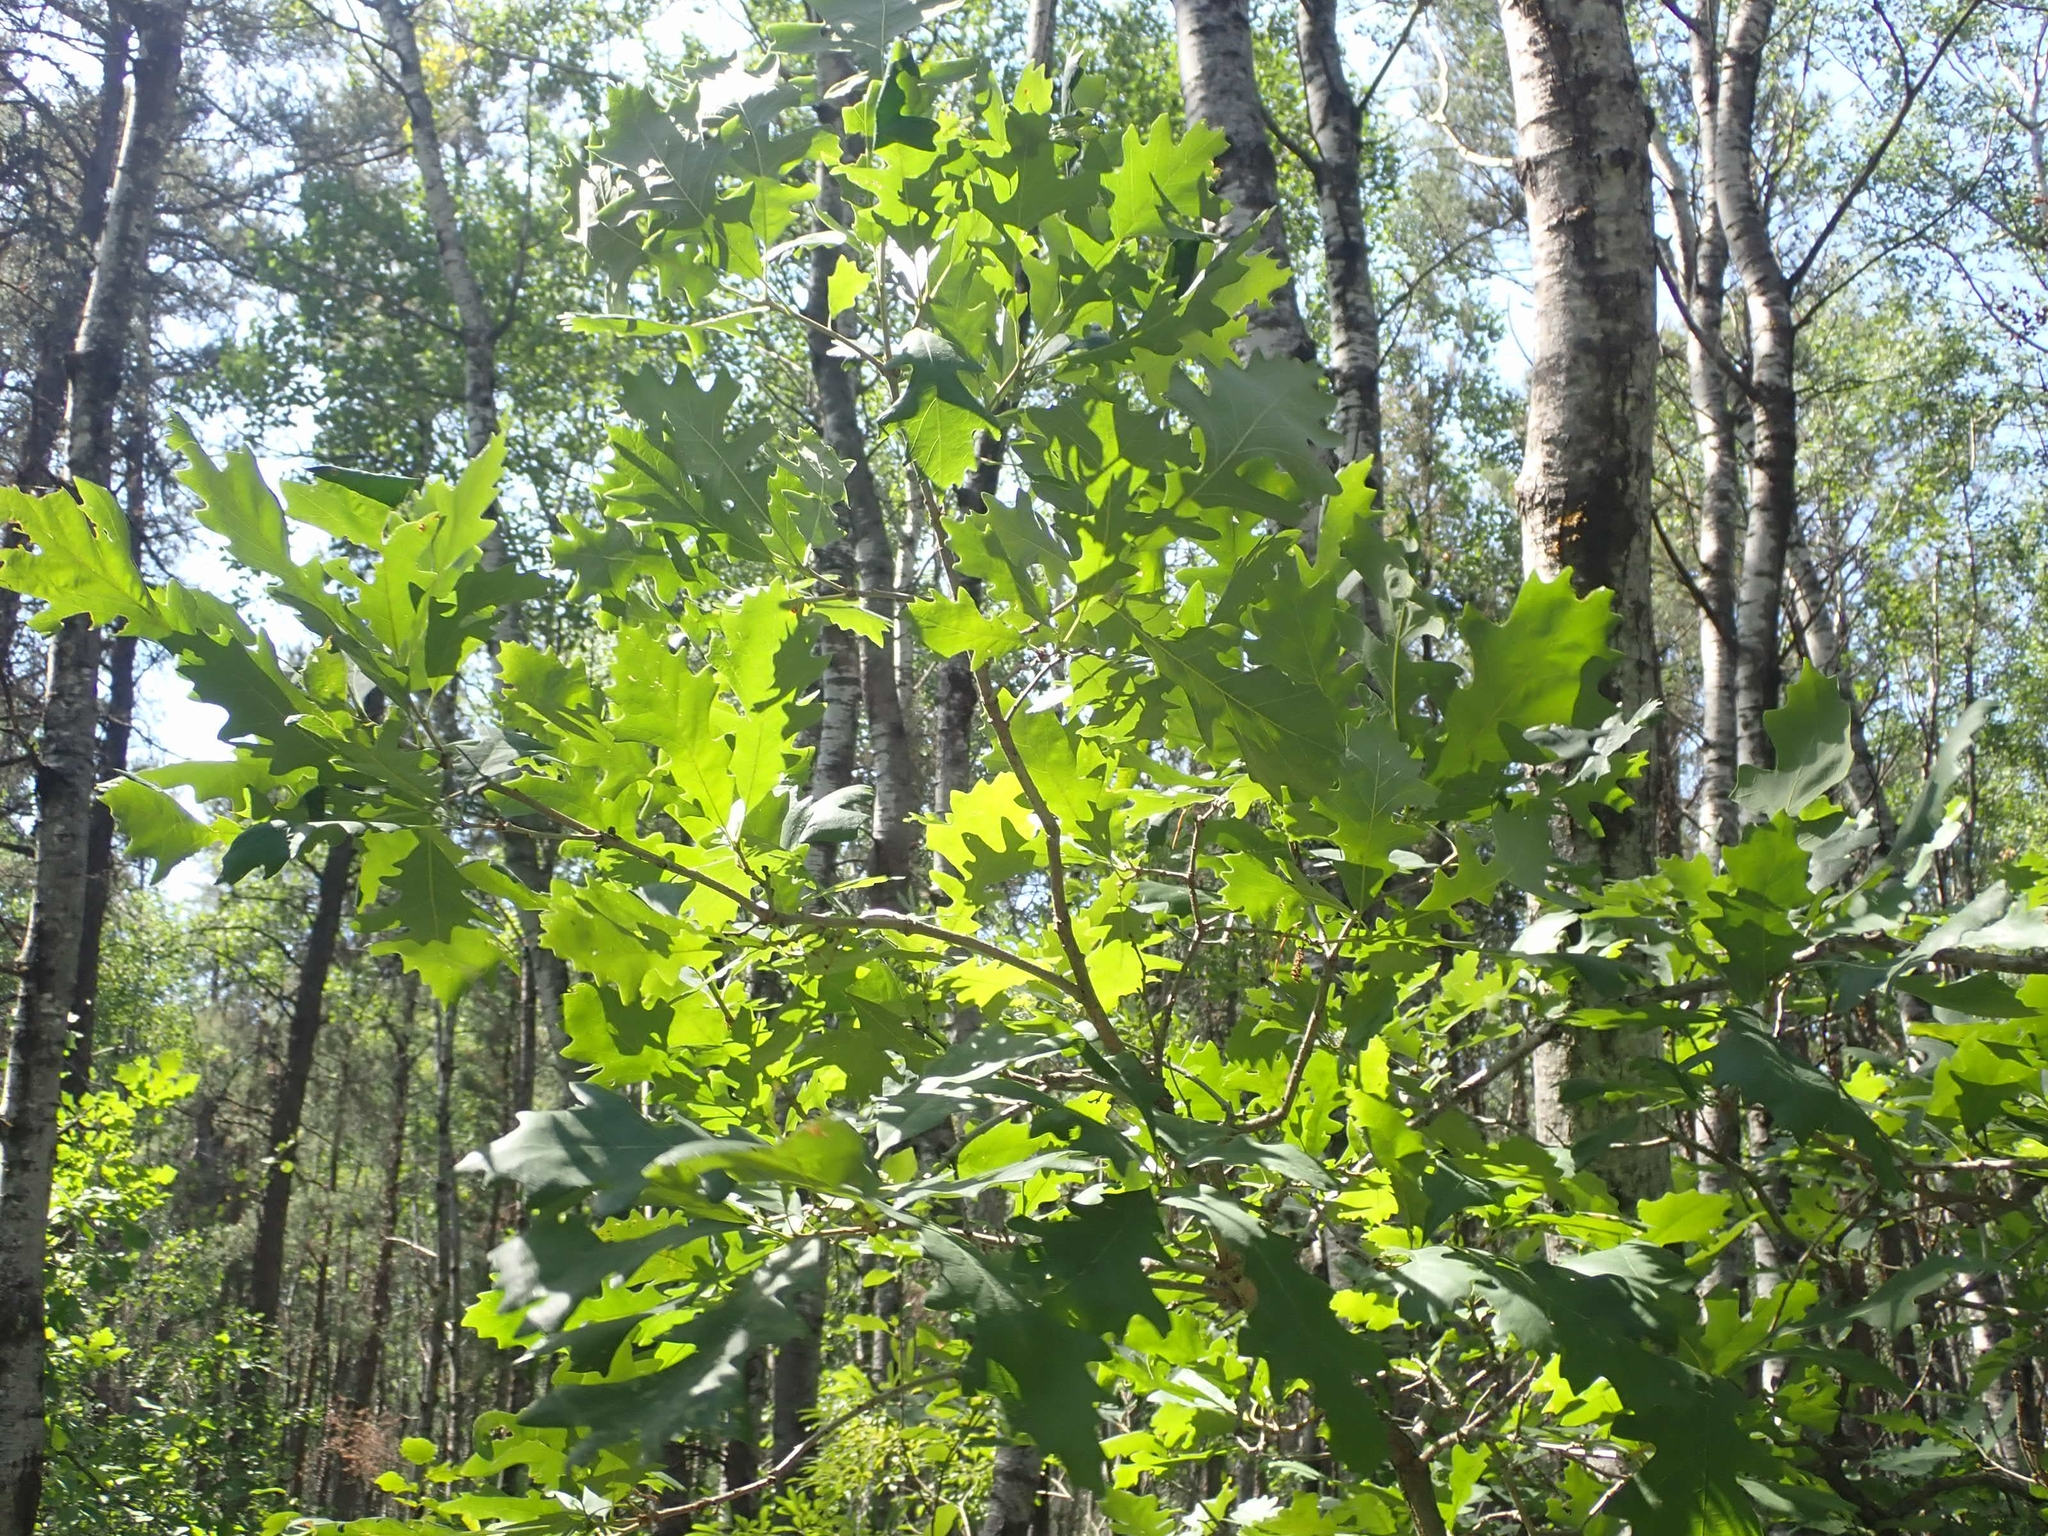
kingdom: Plantae
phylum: Tracheophyta
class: Magnoliopsida
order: Fagales
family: Fagaceae
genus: Quercus
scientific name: Quercus macrocarpa
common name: Bur oak
